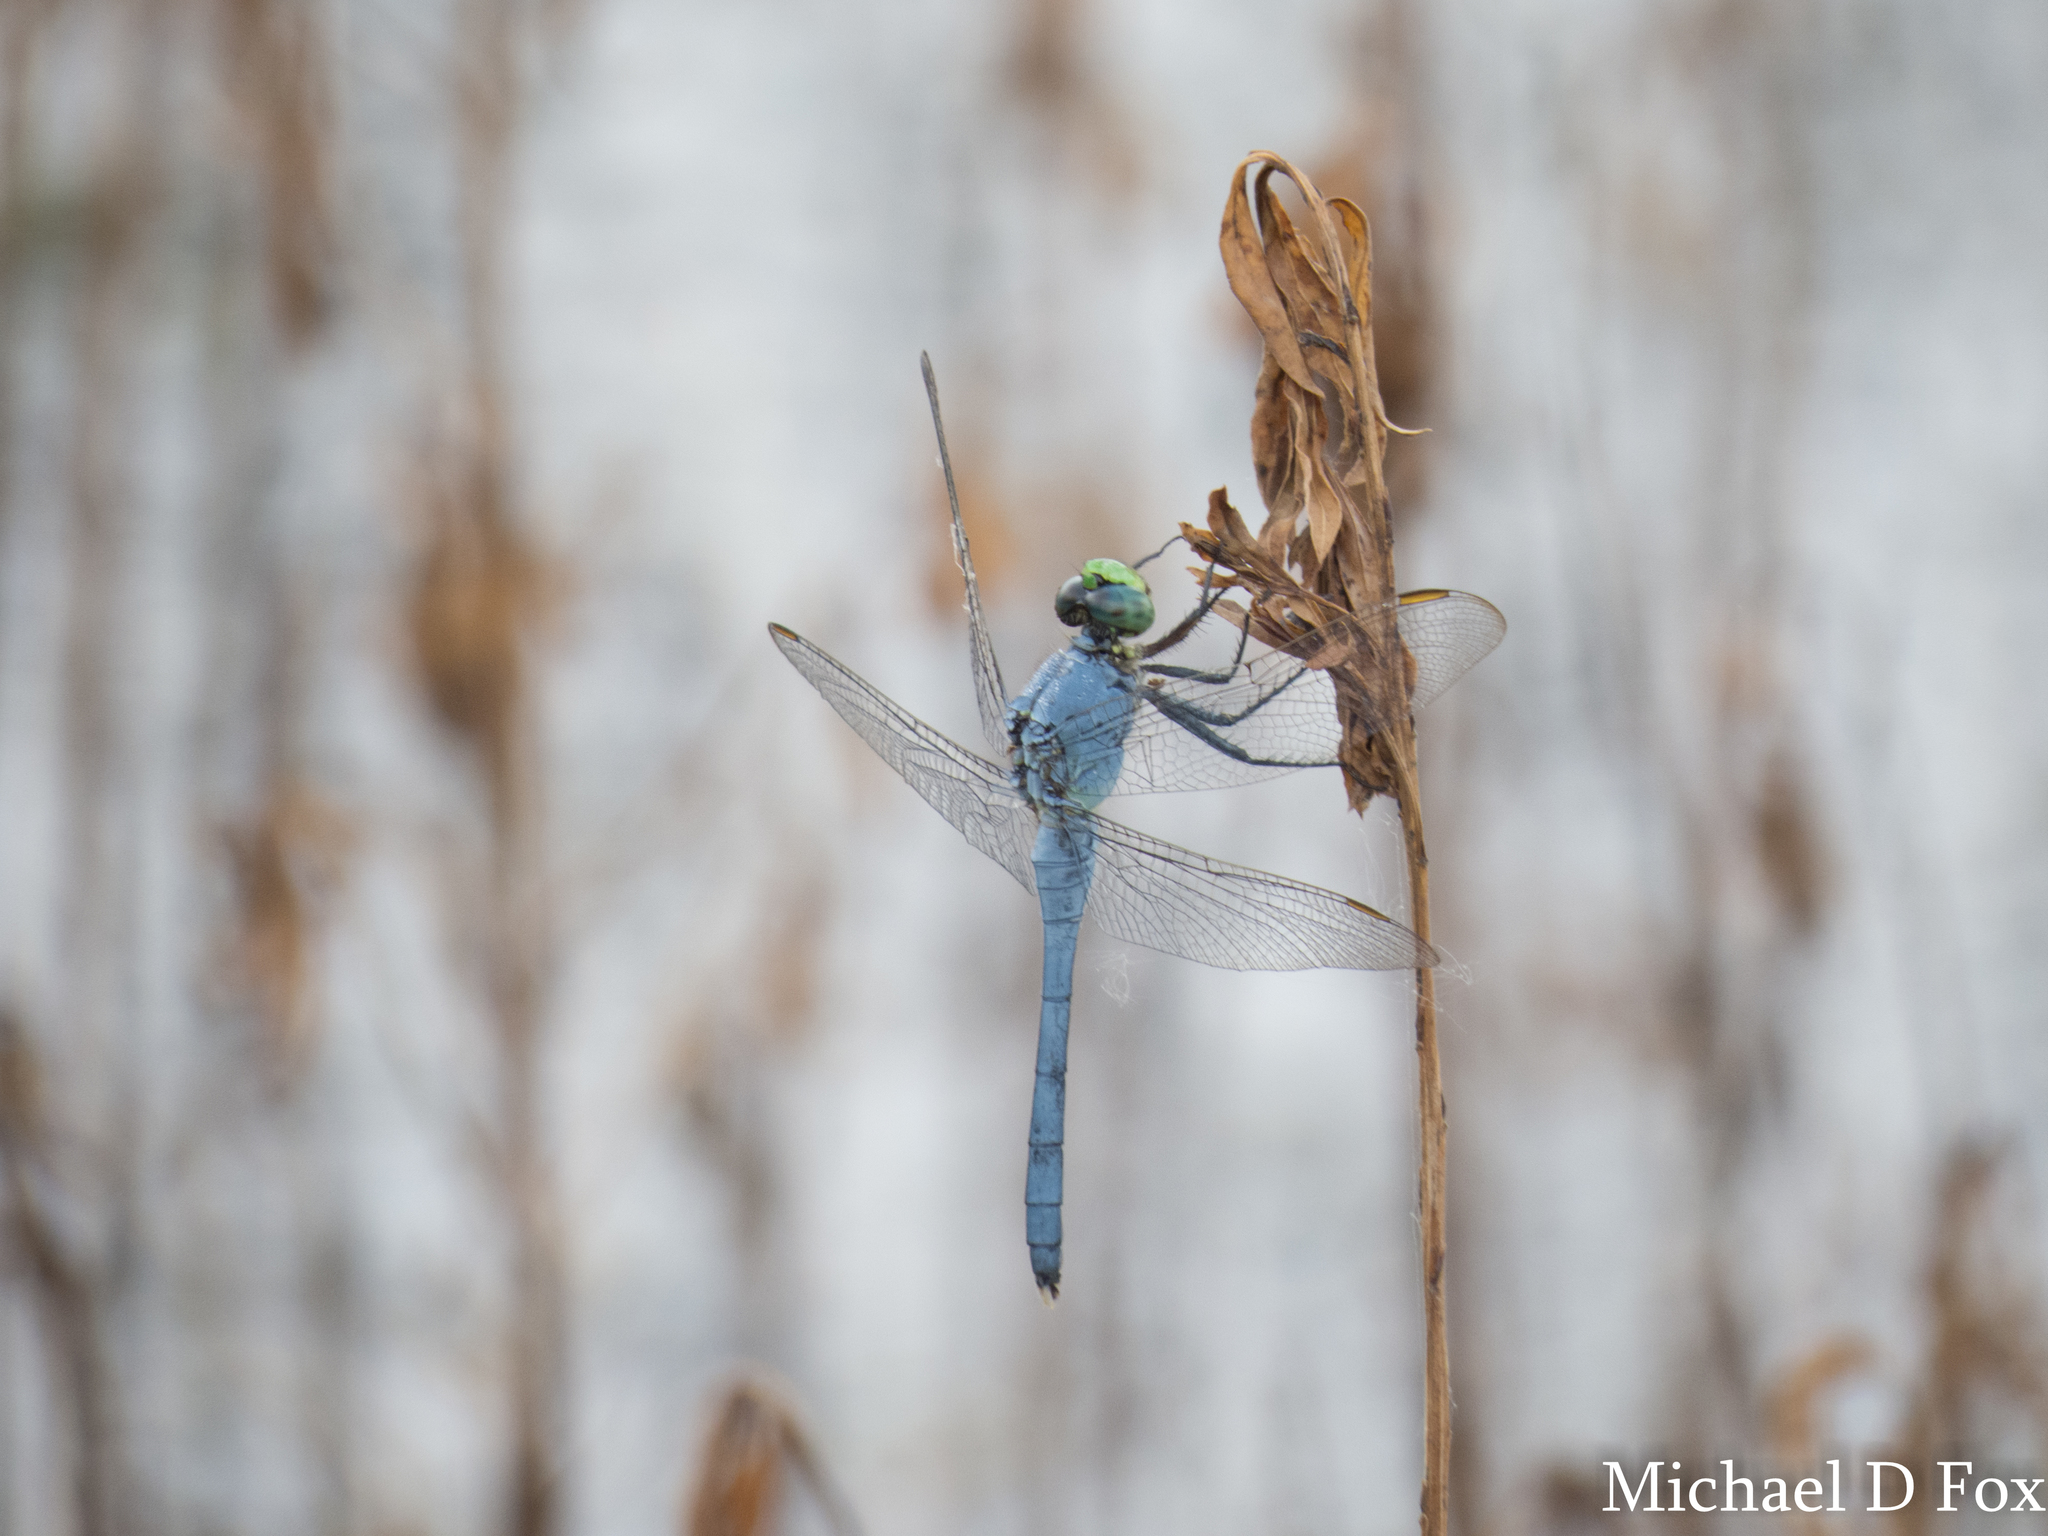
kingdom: Animalia
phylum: Arthropoda
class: Insecta
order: Odonata
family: Libellulidae
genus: Erythemis
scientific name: Erythemis simplicicollis
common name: Eastern pondhawk
